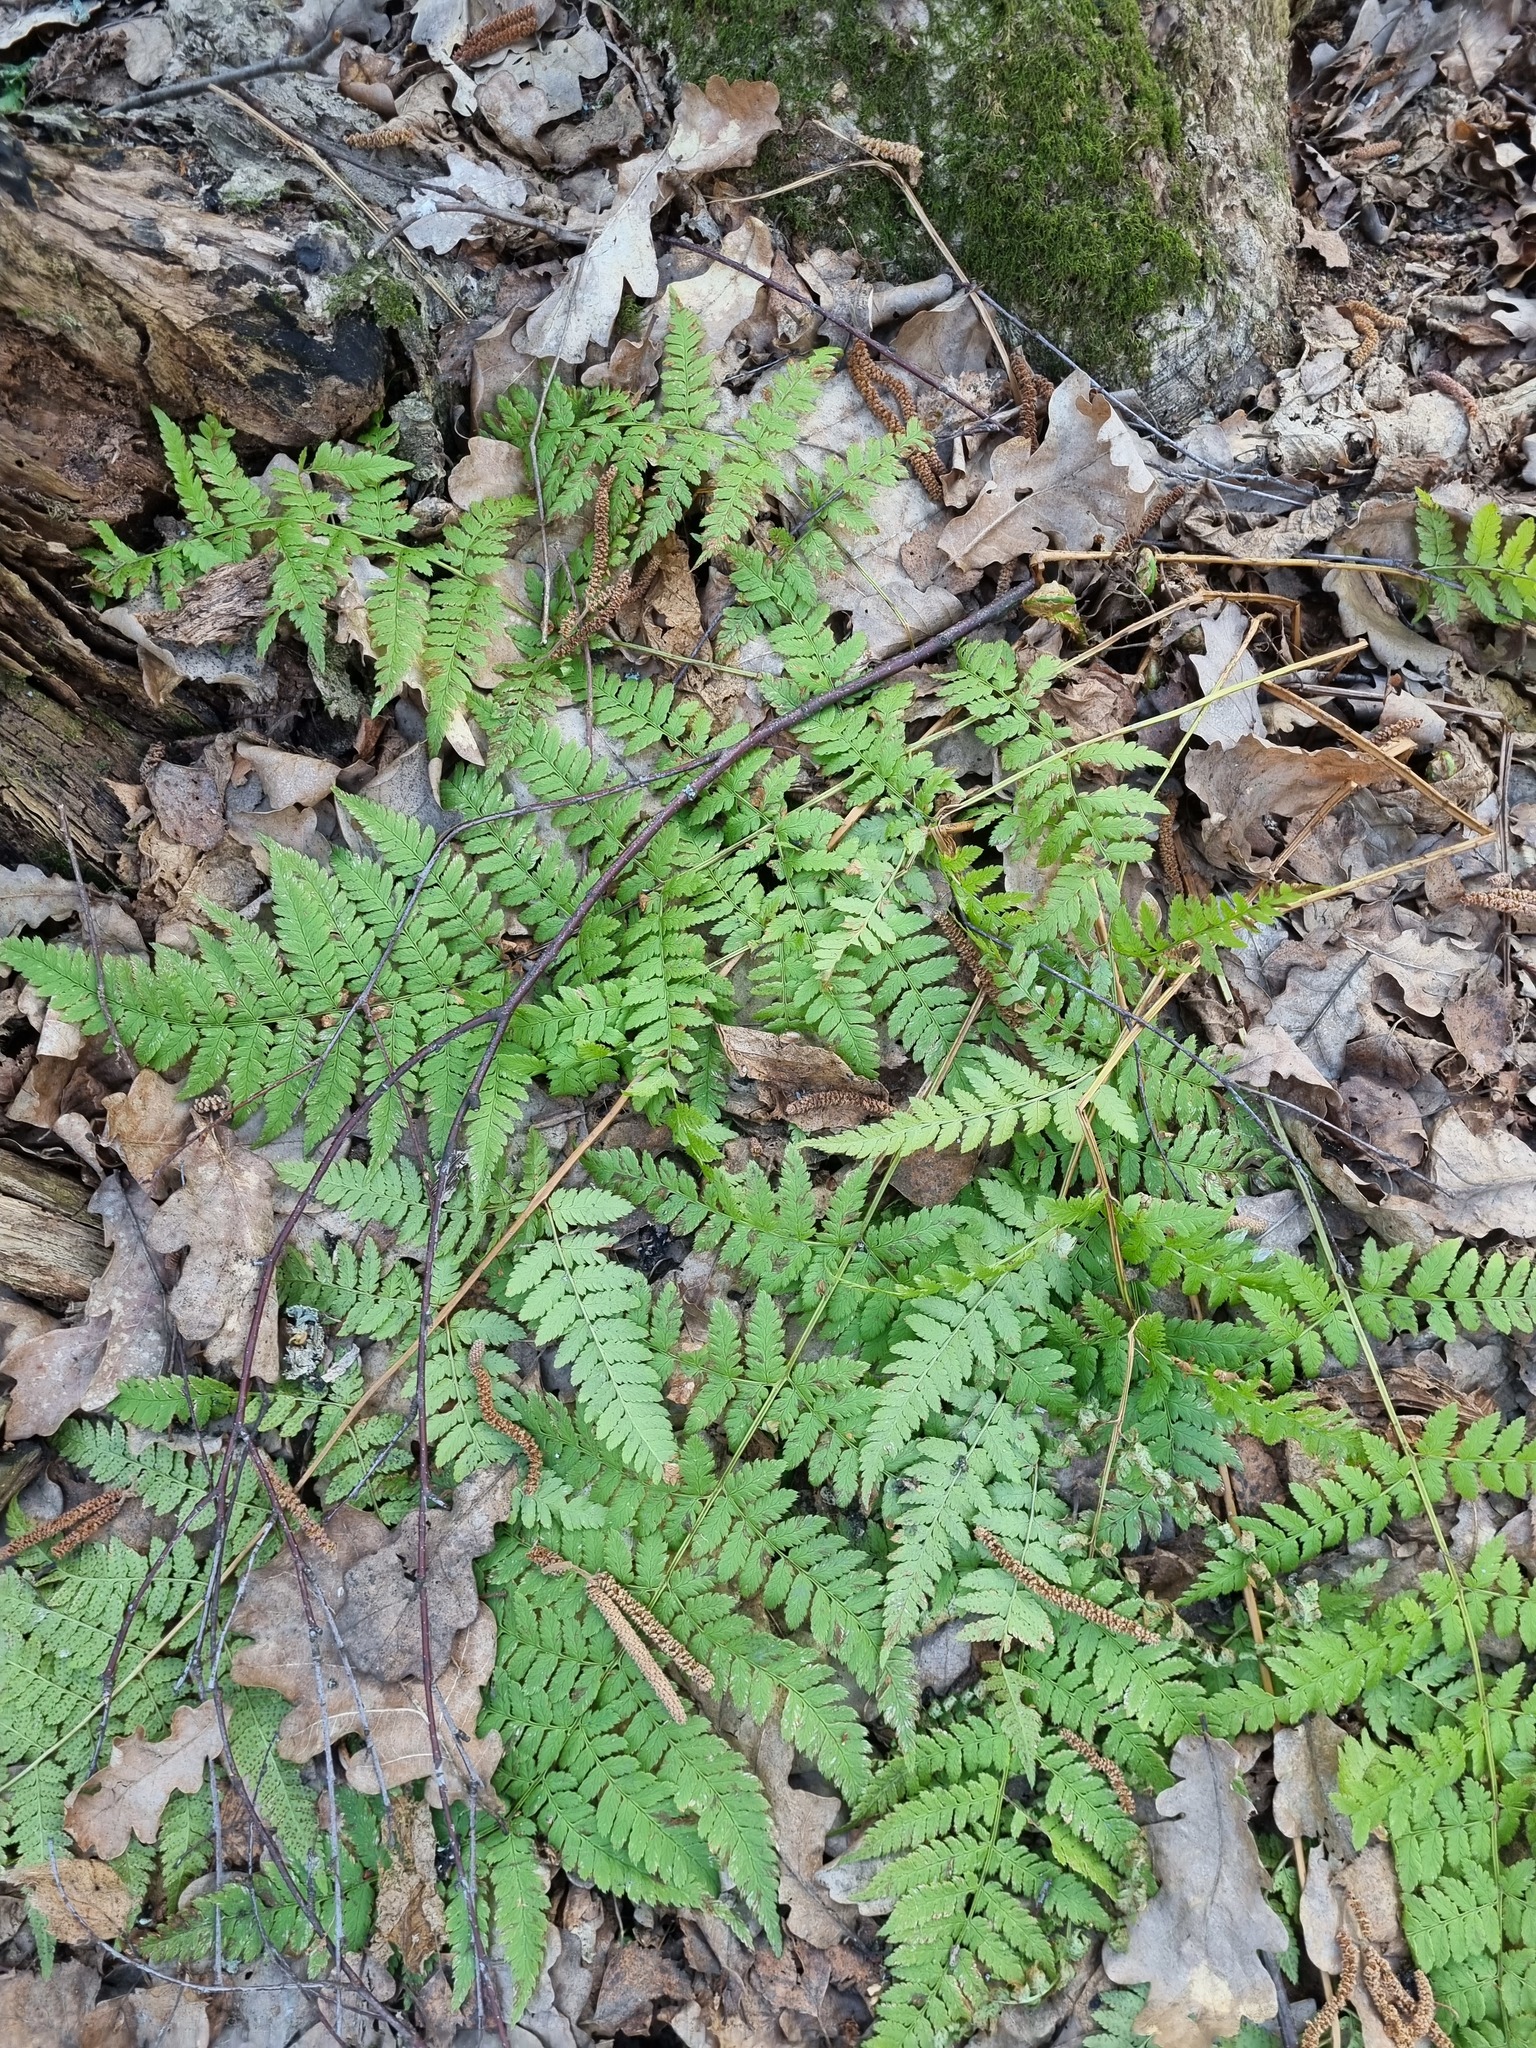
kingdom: Plantae
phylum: Tracheophyta
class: Polypodiopsida
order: Polypodiales
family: Dryopteridaceae
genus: Dryopteris
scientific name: Dryopteris carthusiana
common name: Narrow buckler-fern
